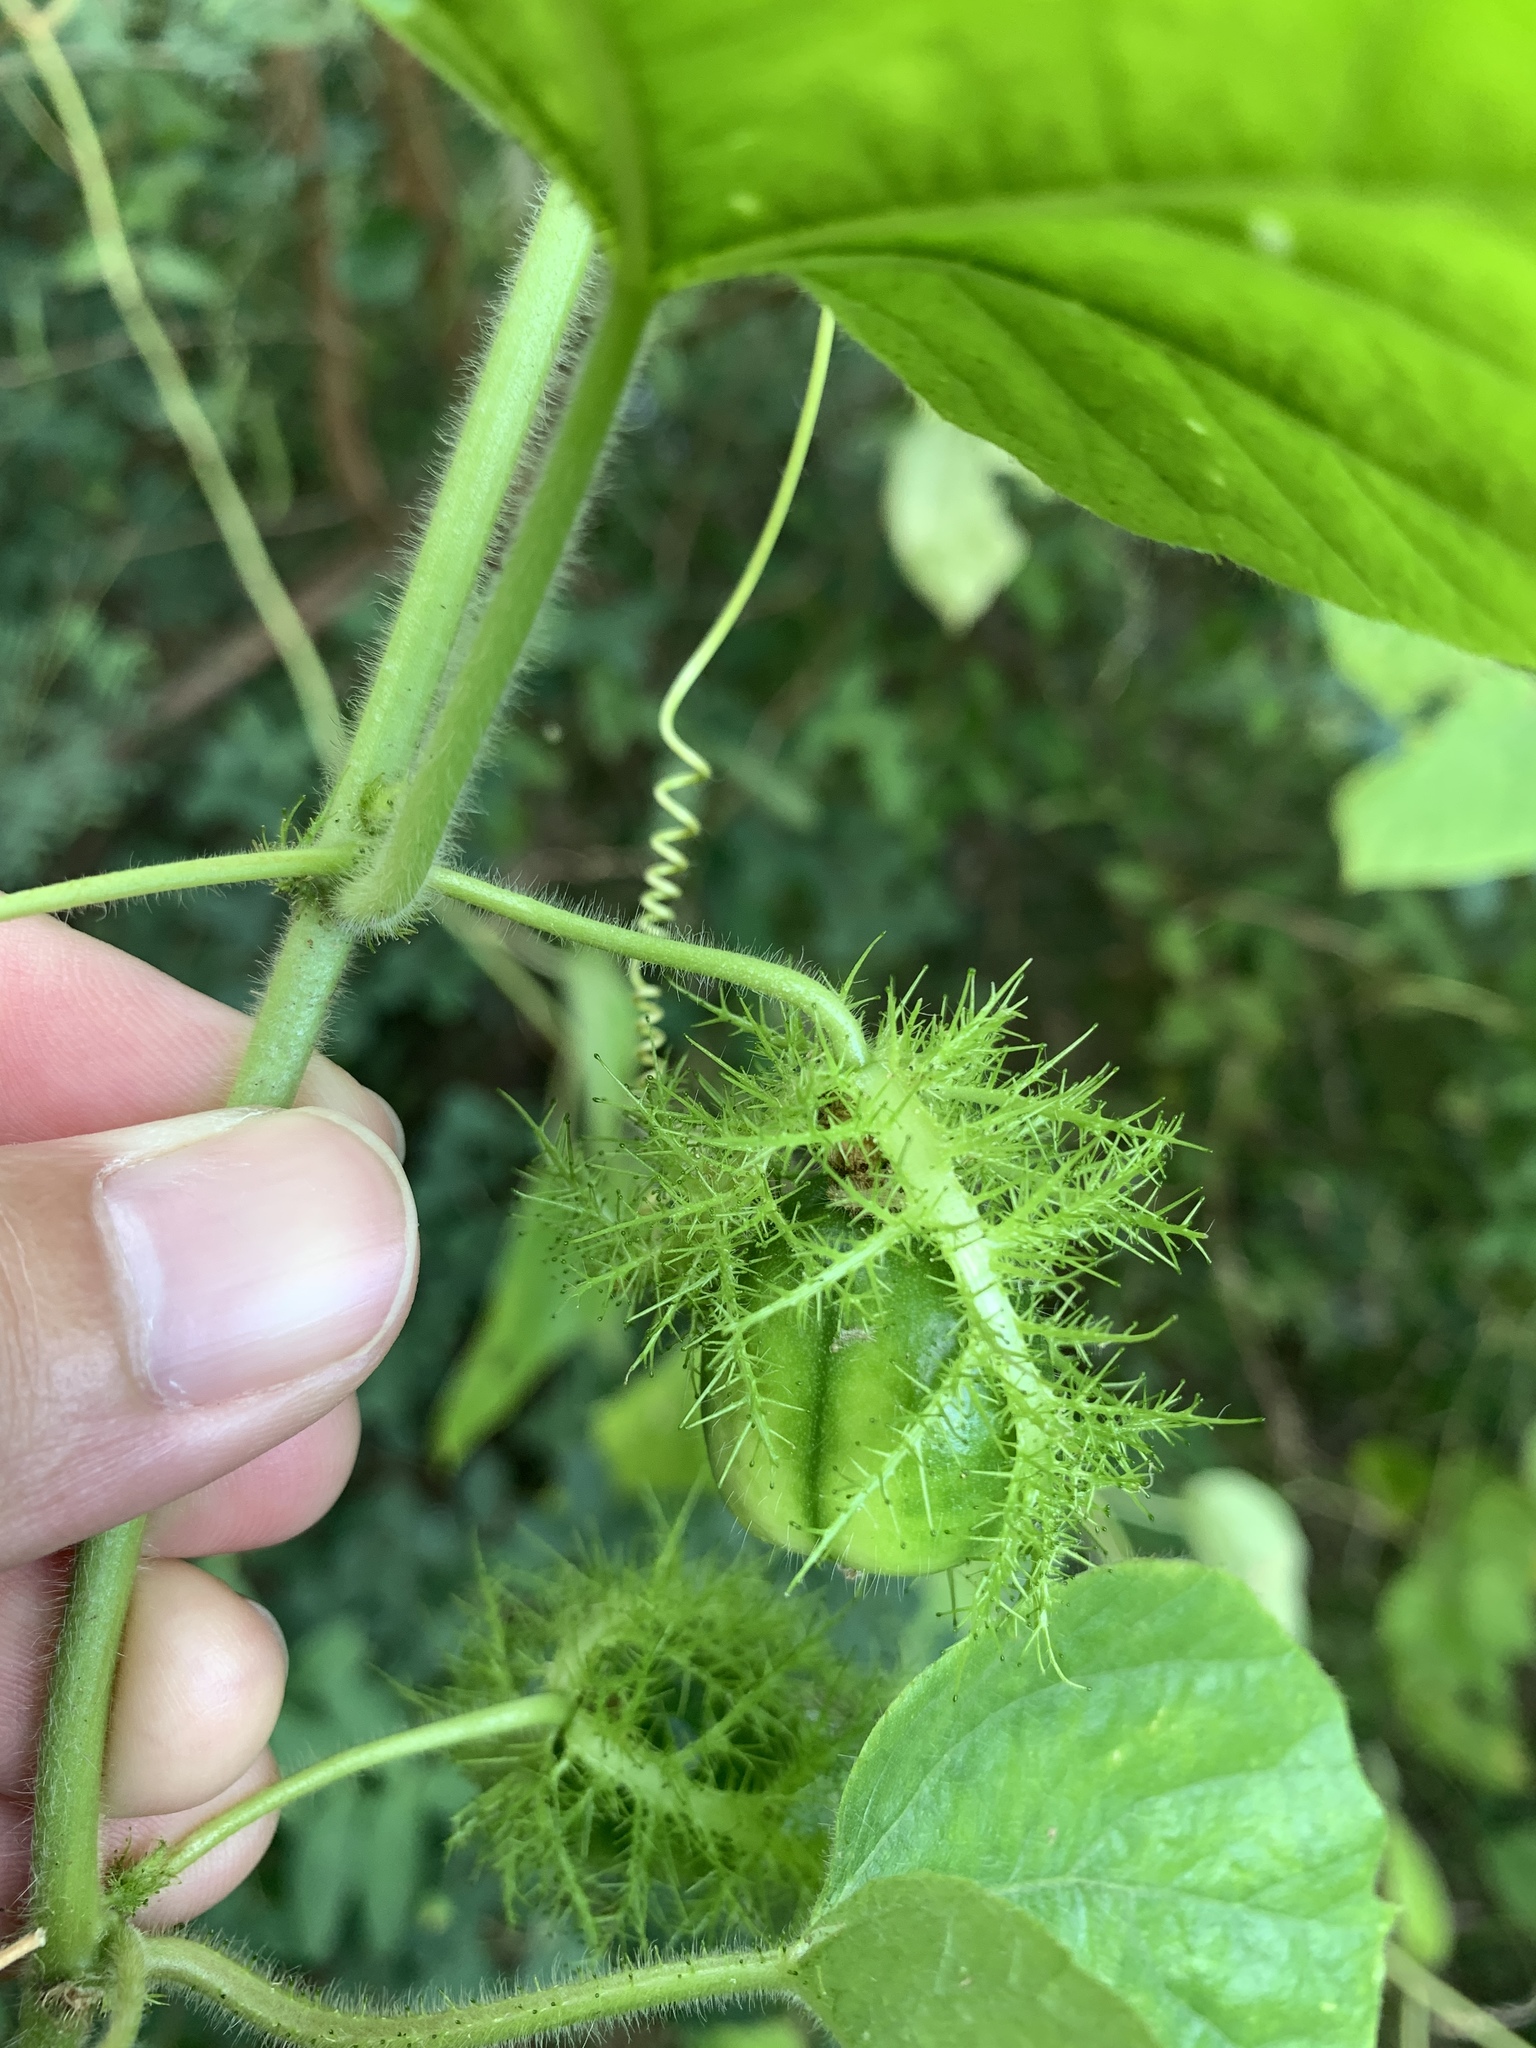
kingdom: Plantae
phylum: Tracheophyta
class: Magnoliopsida
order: Malpighiales
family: Passifloraceae
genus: Passiflora
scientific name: Passiflora vesicaria
